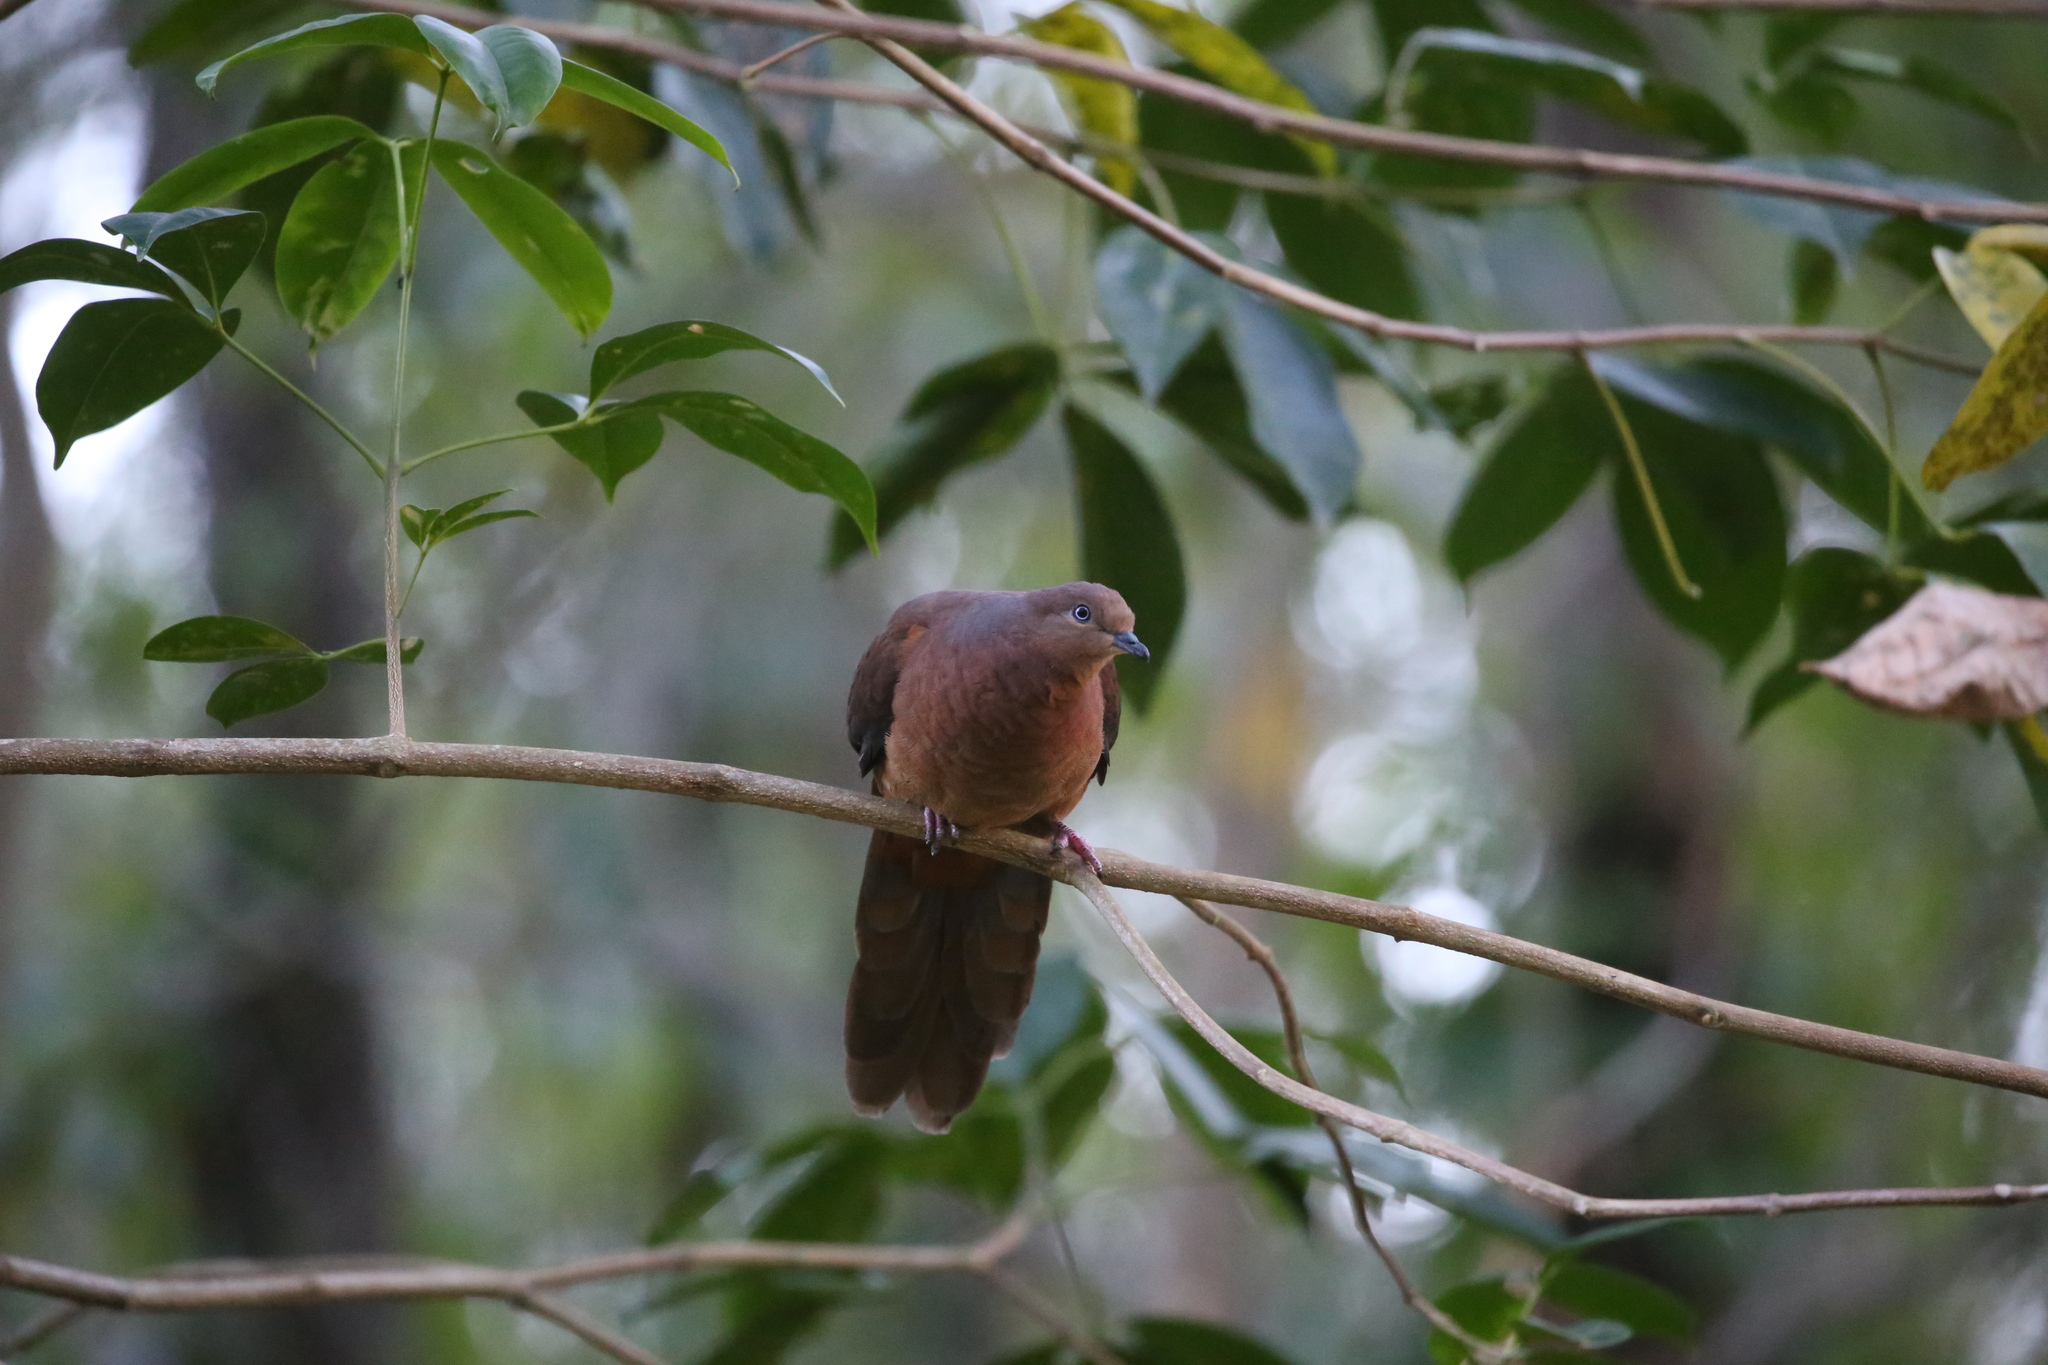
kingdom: Animalia
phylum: Chordata
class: Aves
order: Columbiformes
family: Columbidae
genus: Macropygia
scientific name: Macropygia phasianella
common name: Brown cuckoo-dove
